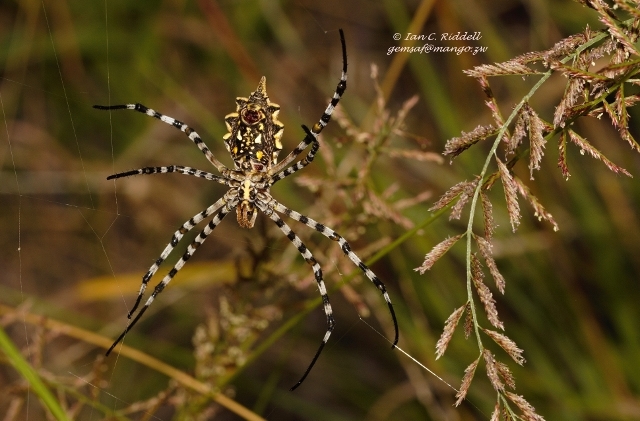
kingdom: Animalia
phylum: Arthropoda
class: Arachnida
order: Araneae
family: Araneidae
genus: Argiope
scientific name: Argiope australis
